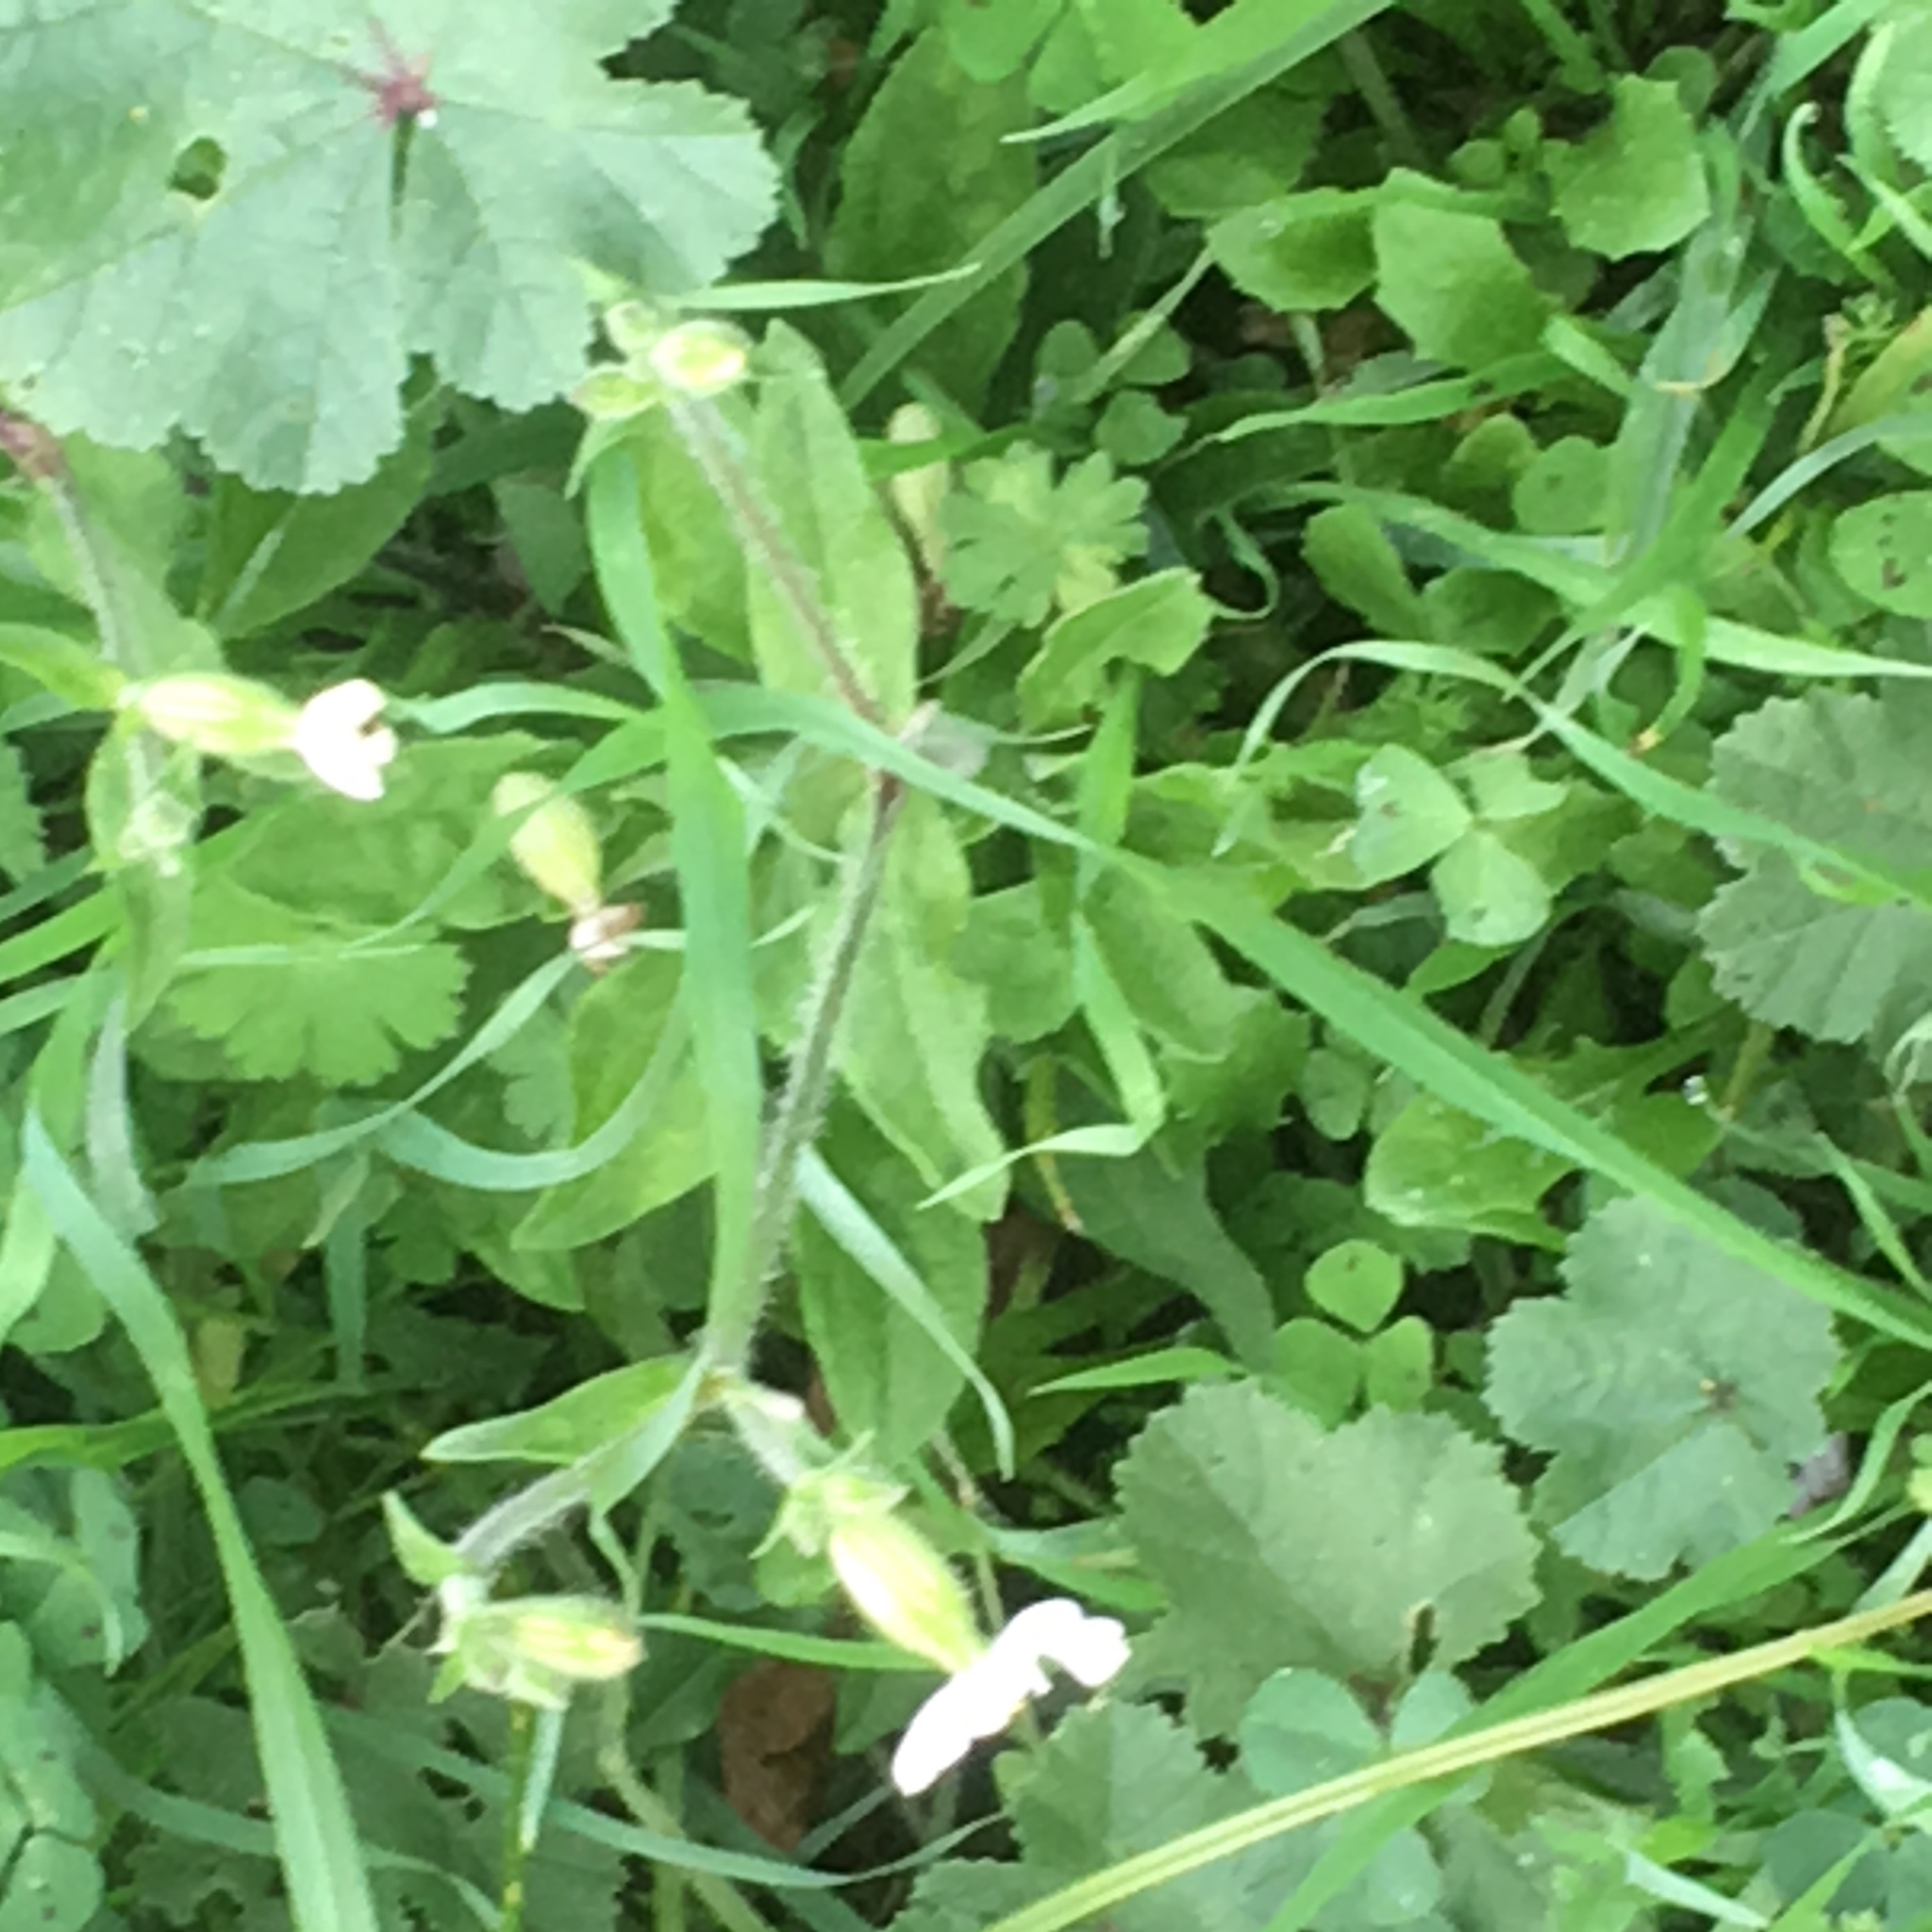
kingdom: Plantae
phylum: Tracheophyta
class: Magnoliopsida
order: Caryophyllales
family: Caryophyllaceae
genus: Silene
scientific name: Silene latifolia
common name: White campion
